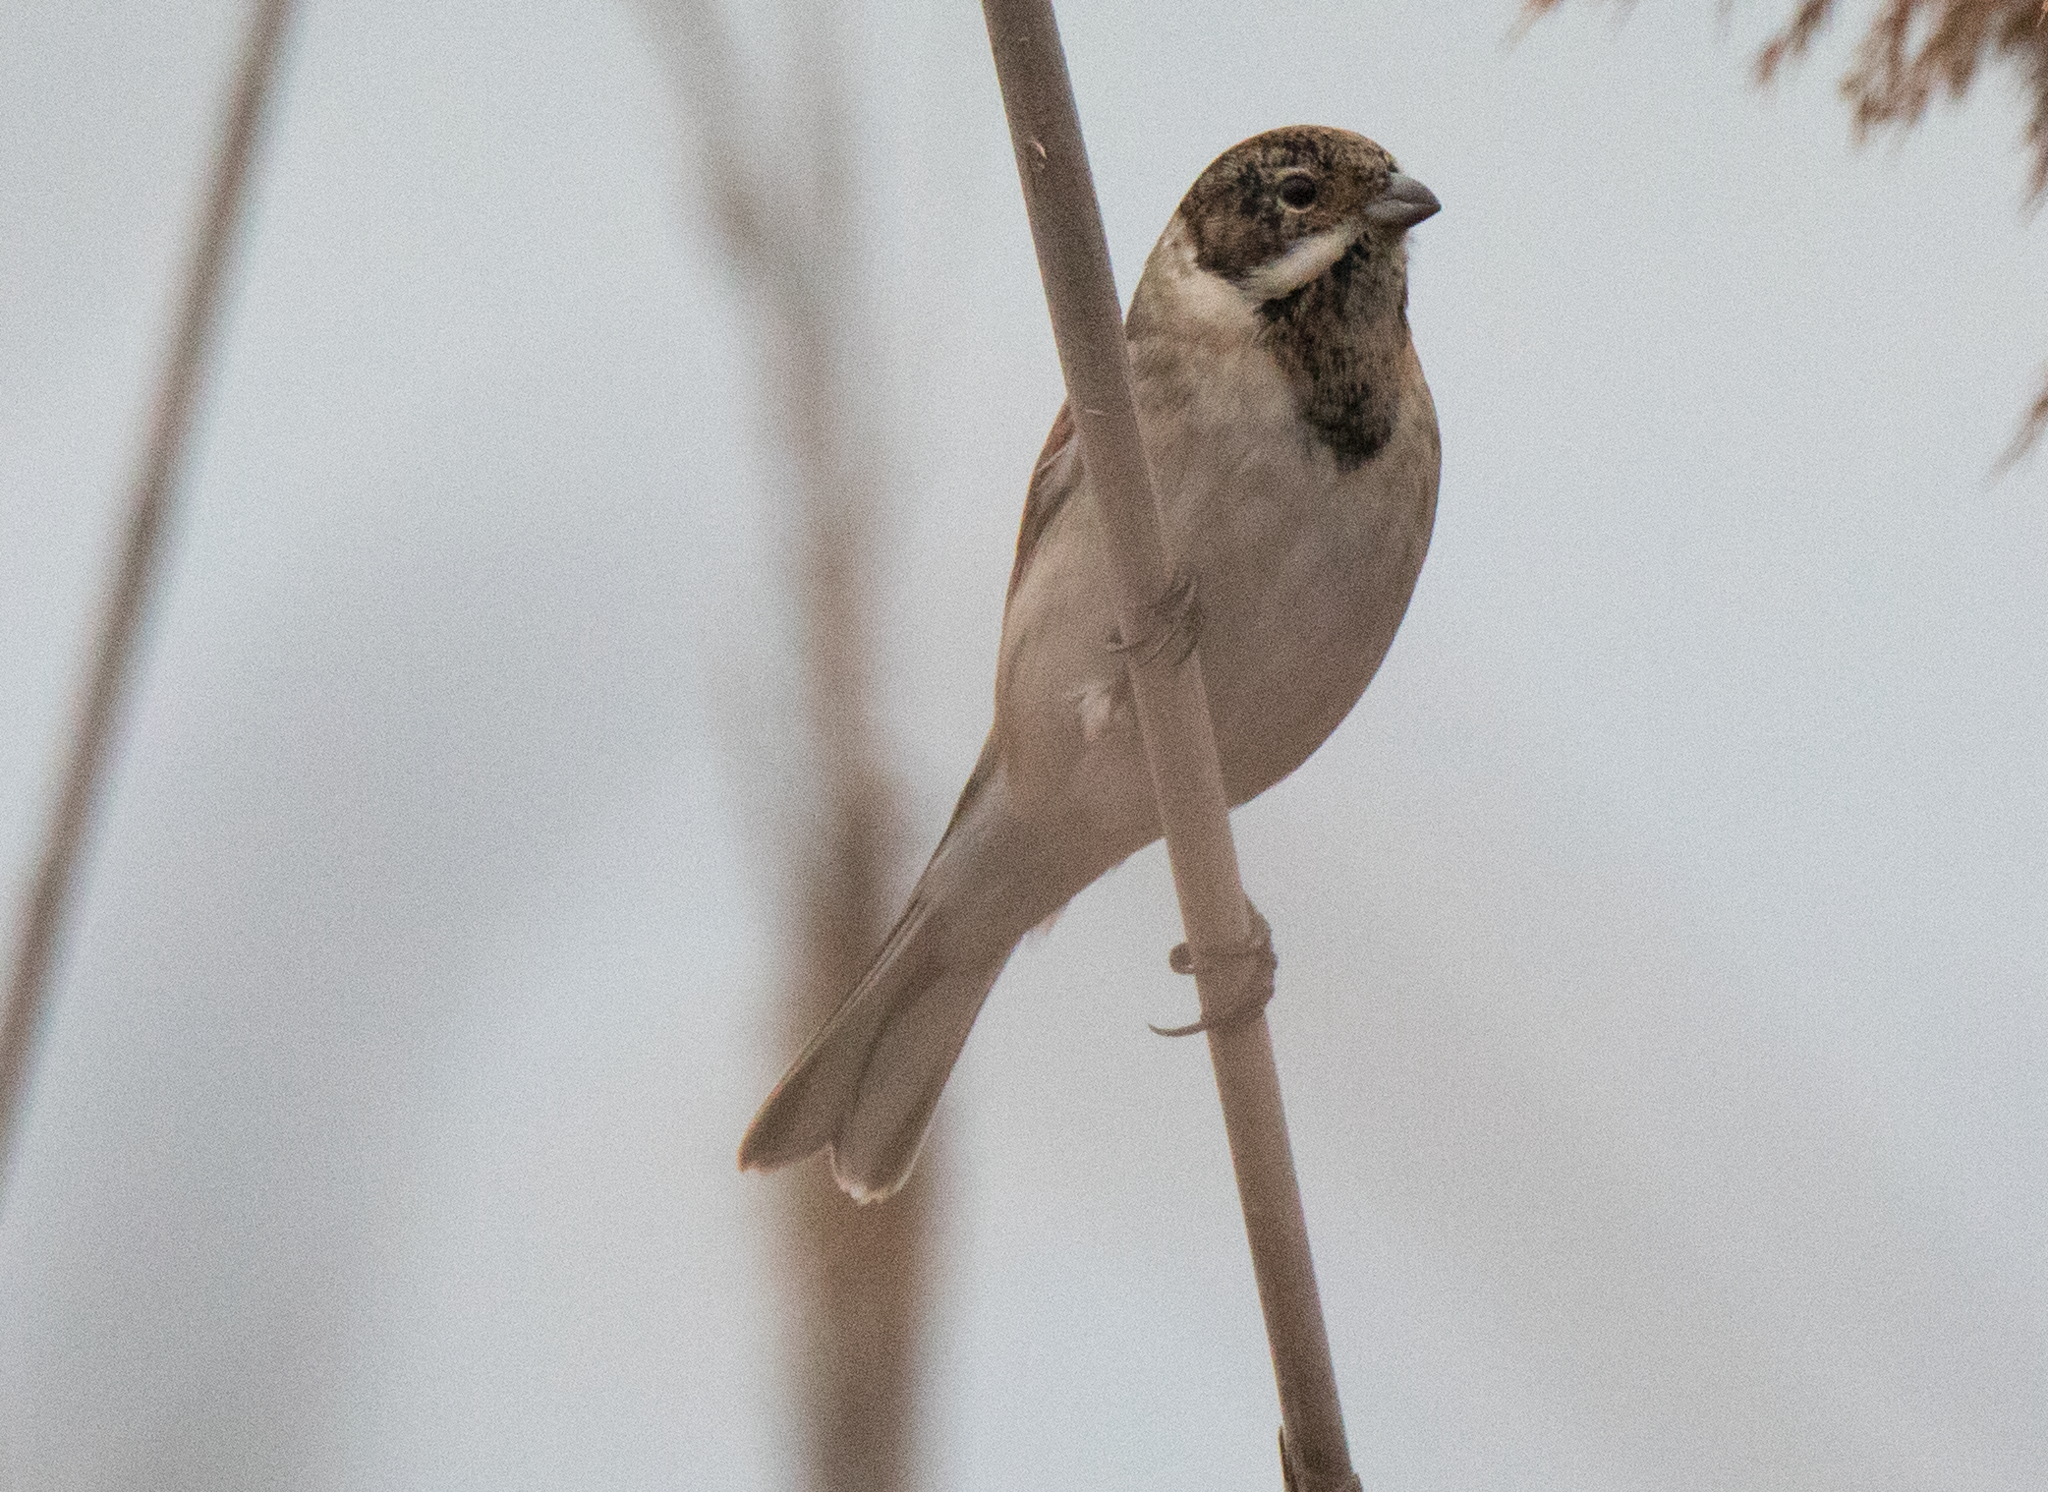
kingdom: Animalia
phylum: Chordata
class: Aves
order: Passeriformes
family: Emberizidae
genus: Emberiza
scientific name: Emberiza schoeniclus
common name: Reed bunting
